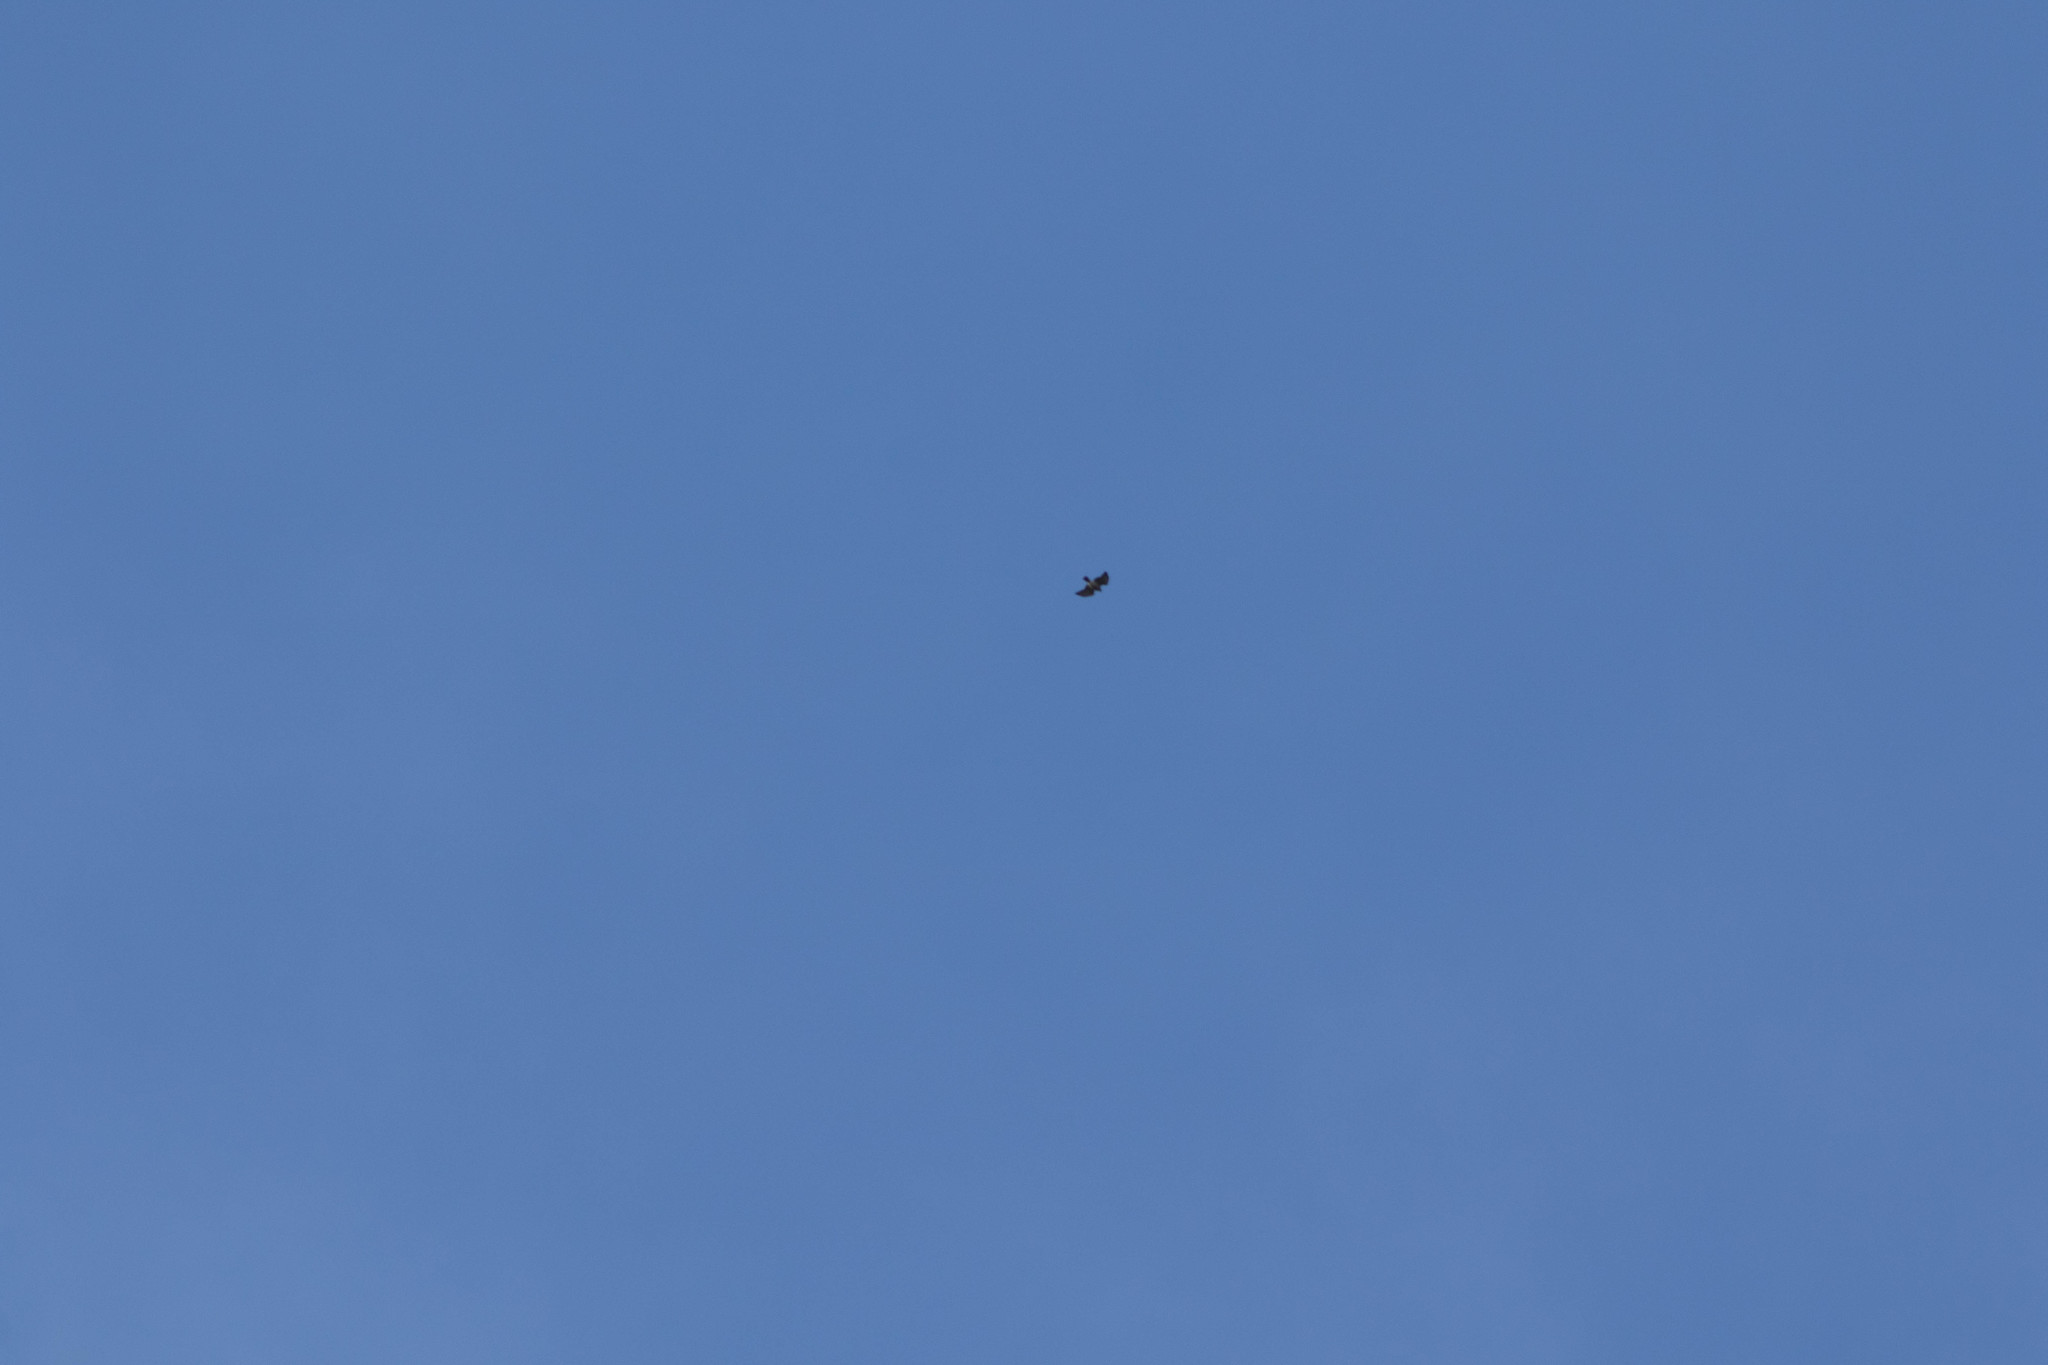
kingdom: Animalia
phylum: Chordata
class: Aves
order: Accipitriformes
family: Accipitridae
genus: Buteo
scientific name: Buteo platypterus
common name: Broad-winged hawk
